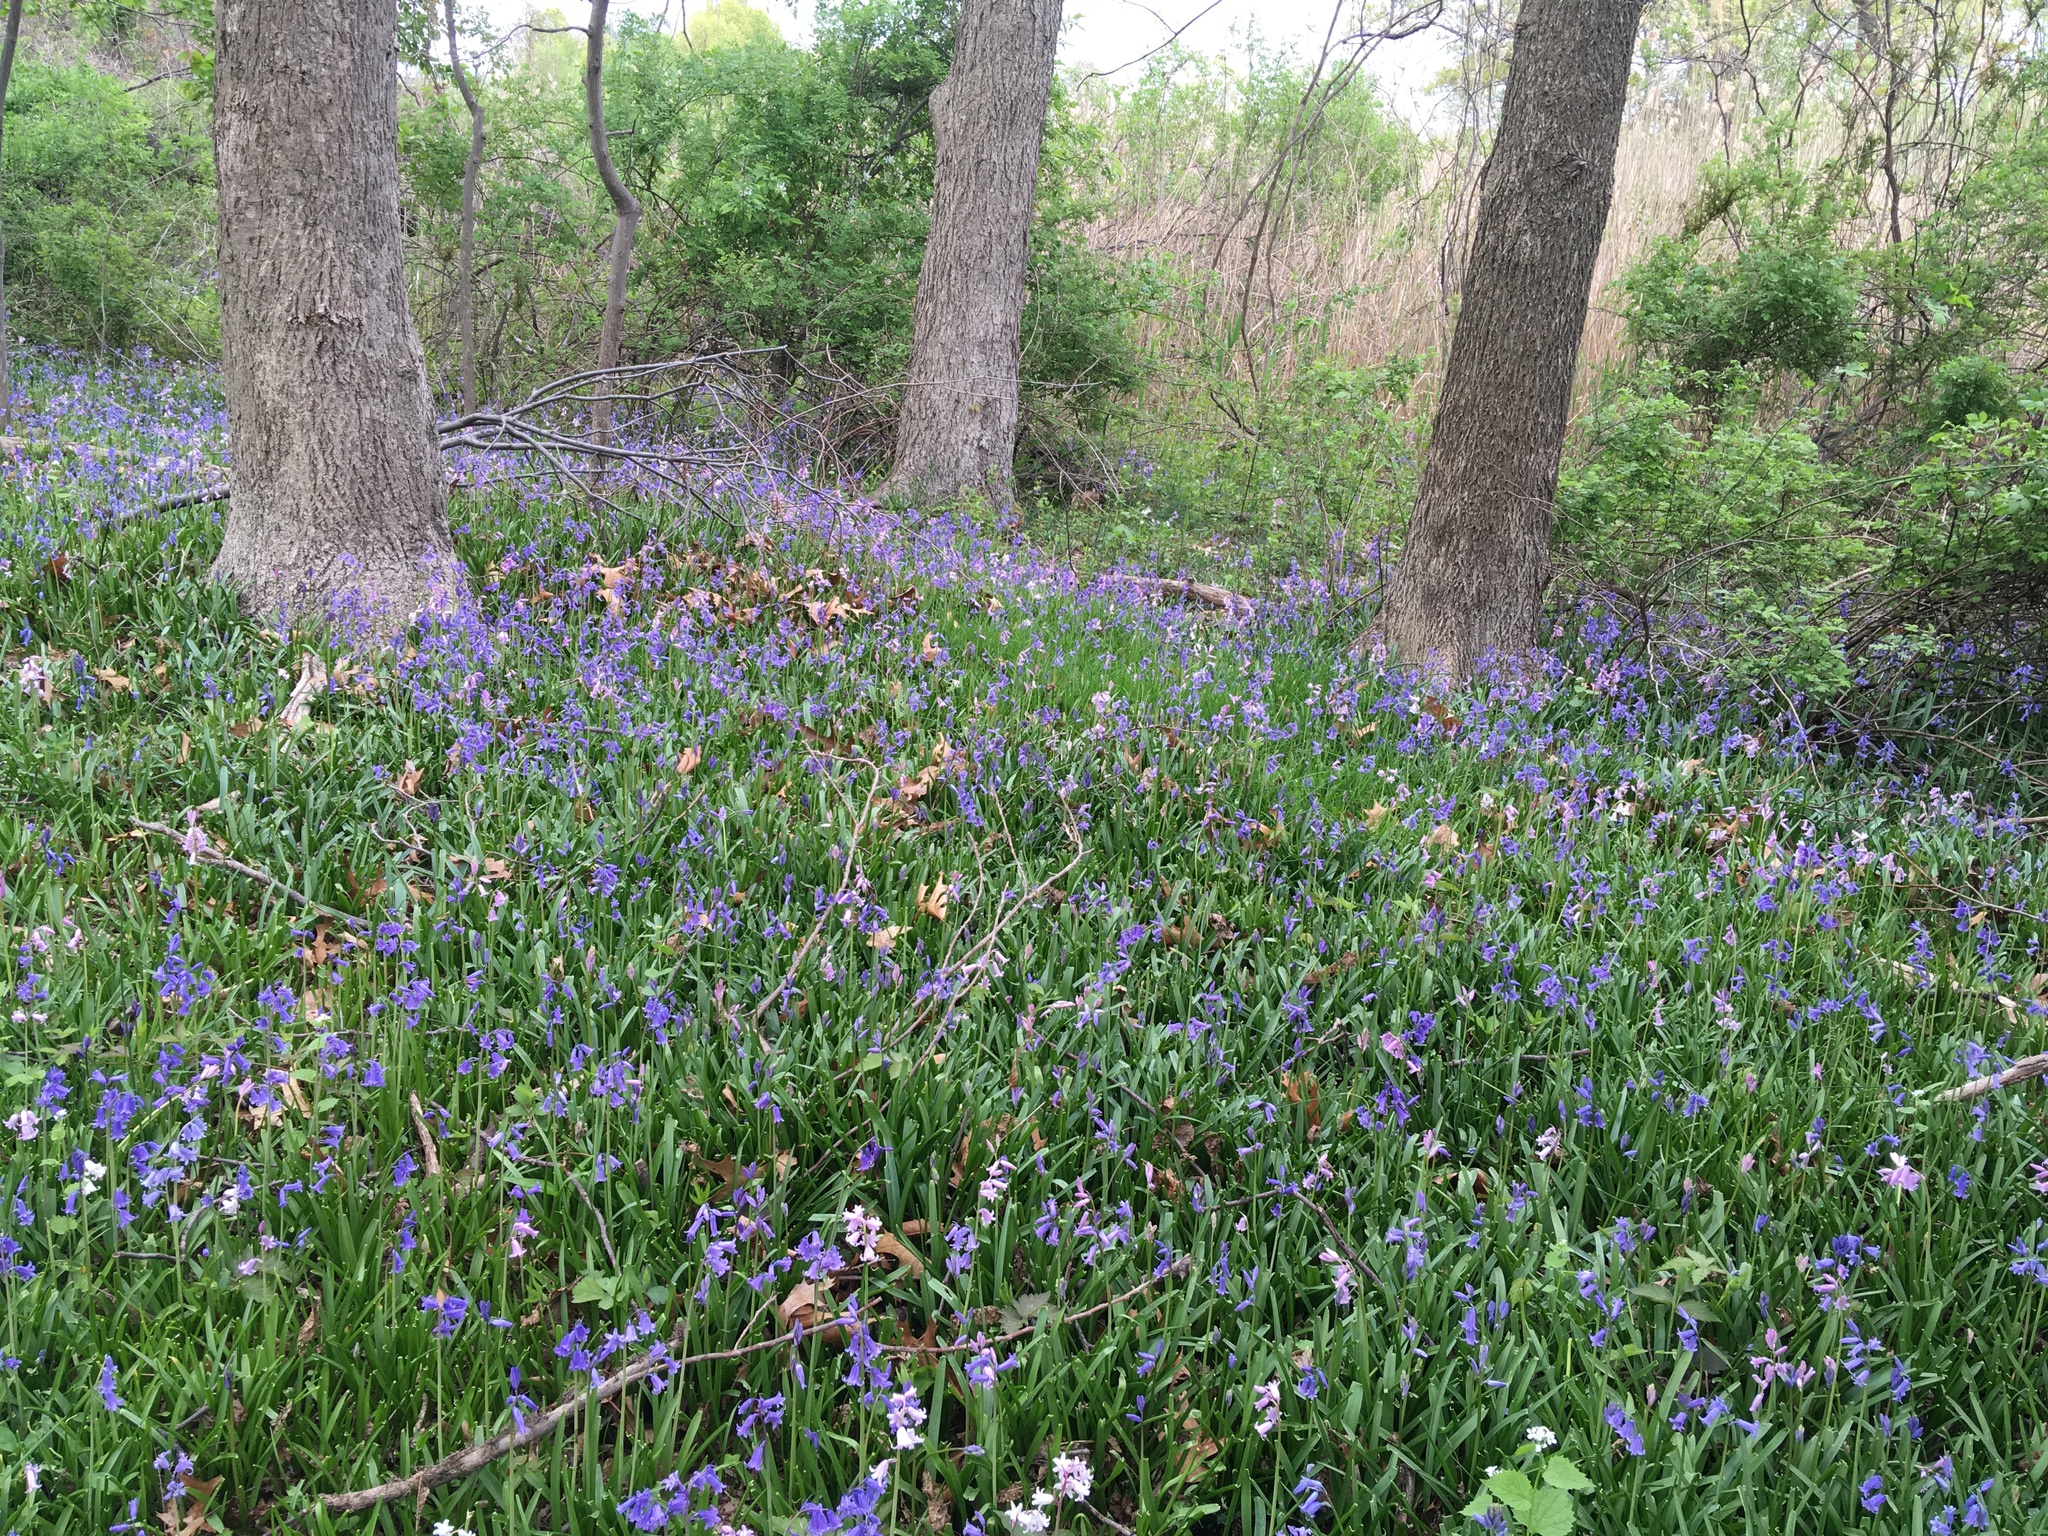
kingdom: Plantae
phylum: Tracheophyta
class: Liliopsida
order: Asparagales
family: Asparagaceae
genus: Hyacinthoides
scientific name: Hyacinthoides massartiana
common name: Hyacinthoides
